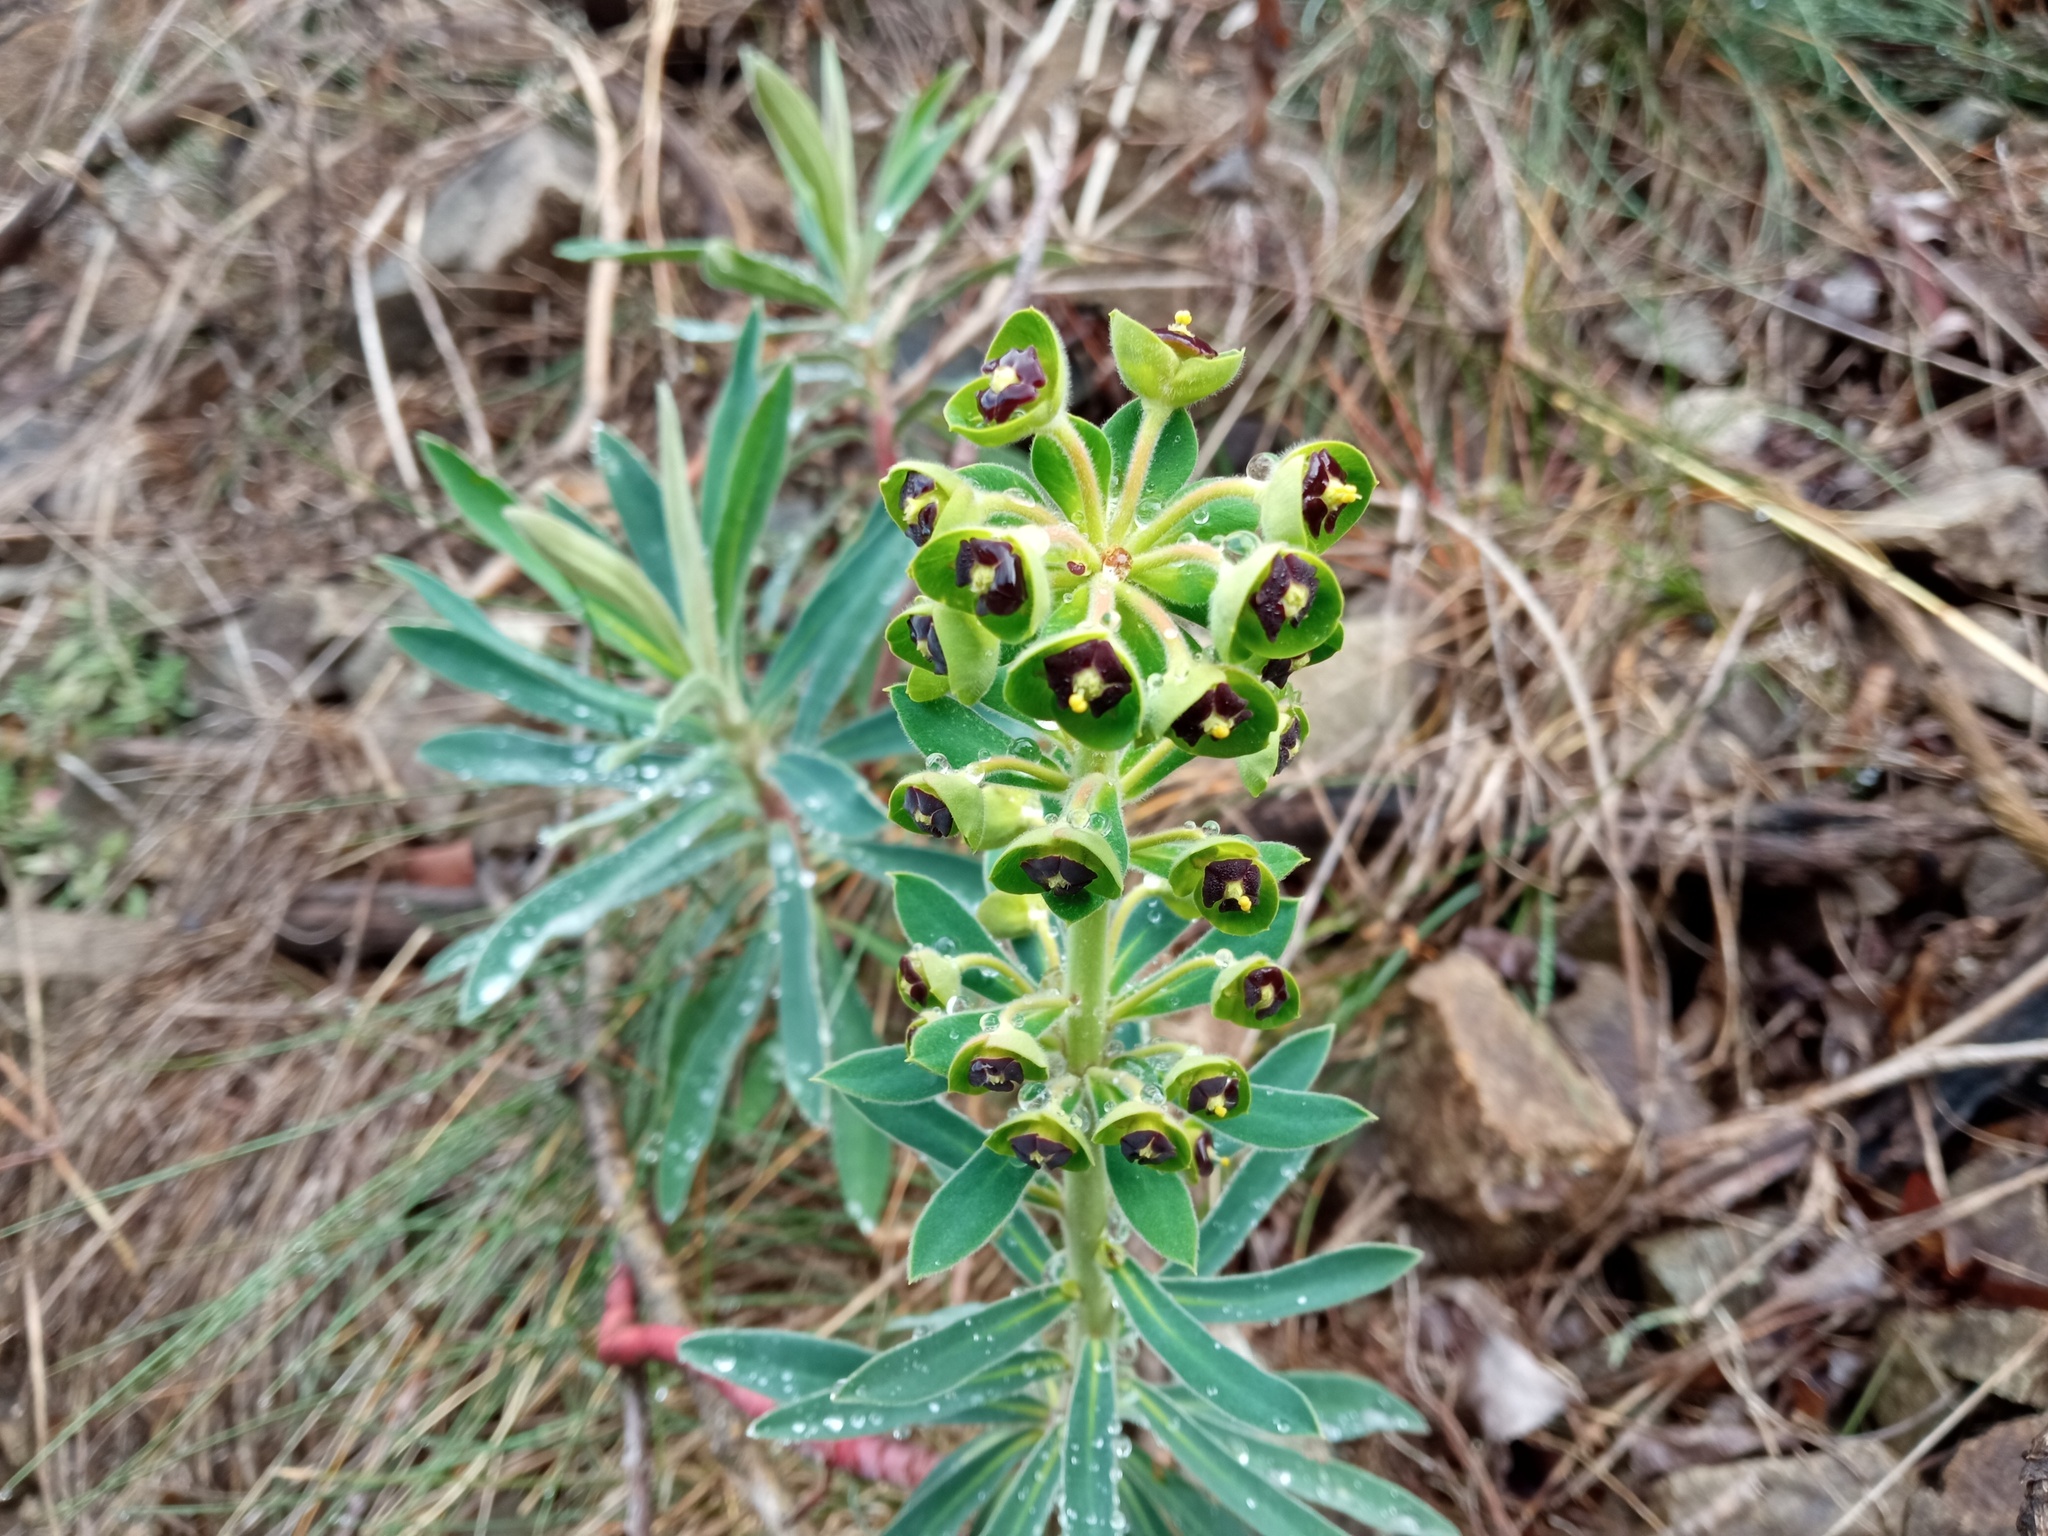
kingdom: Plantae
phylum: Tracheophyta
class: Magnoliopsida
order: Malpighiales
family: Euphorbiaceae
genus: Euphorbia
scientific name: Euphorbia characias
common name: Mediterranean spurge
